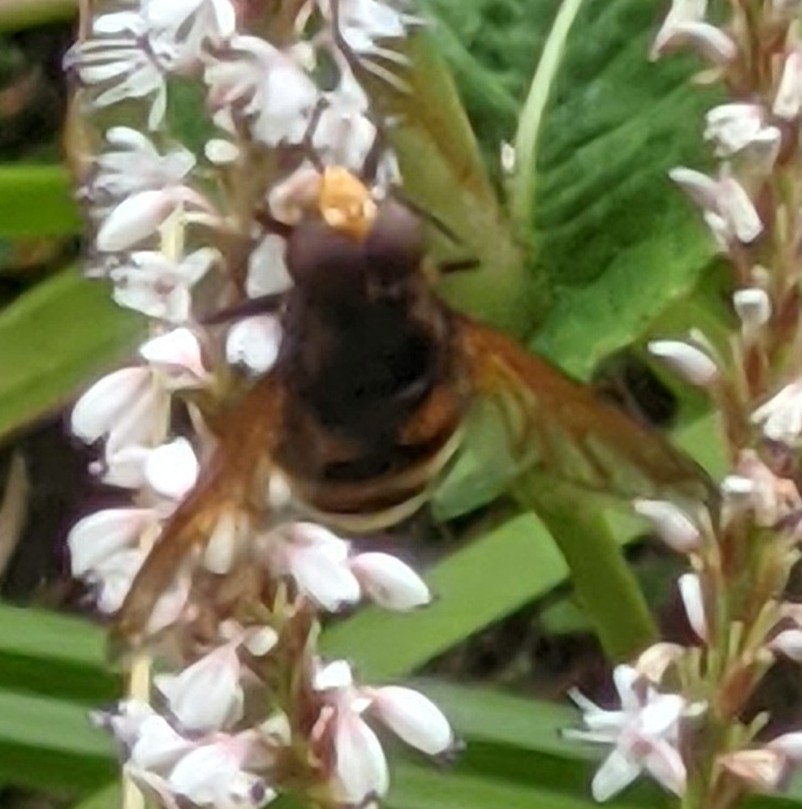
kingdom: Animalia
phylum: Arthropoda
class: Insecta
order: Diptera
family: Syrphidae
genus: Volucella
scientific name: Volucella zonaria
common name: Hornet hoverfly
